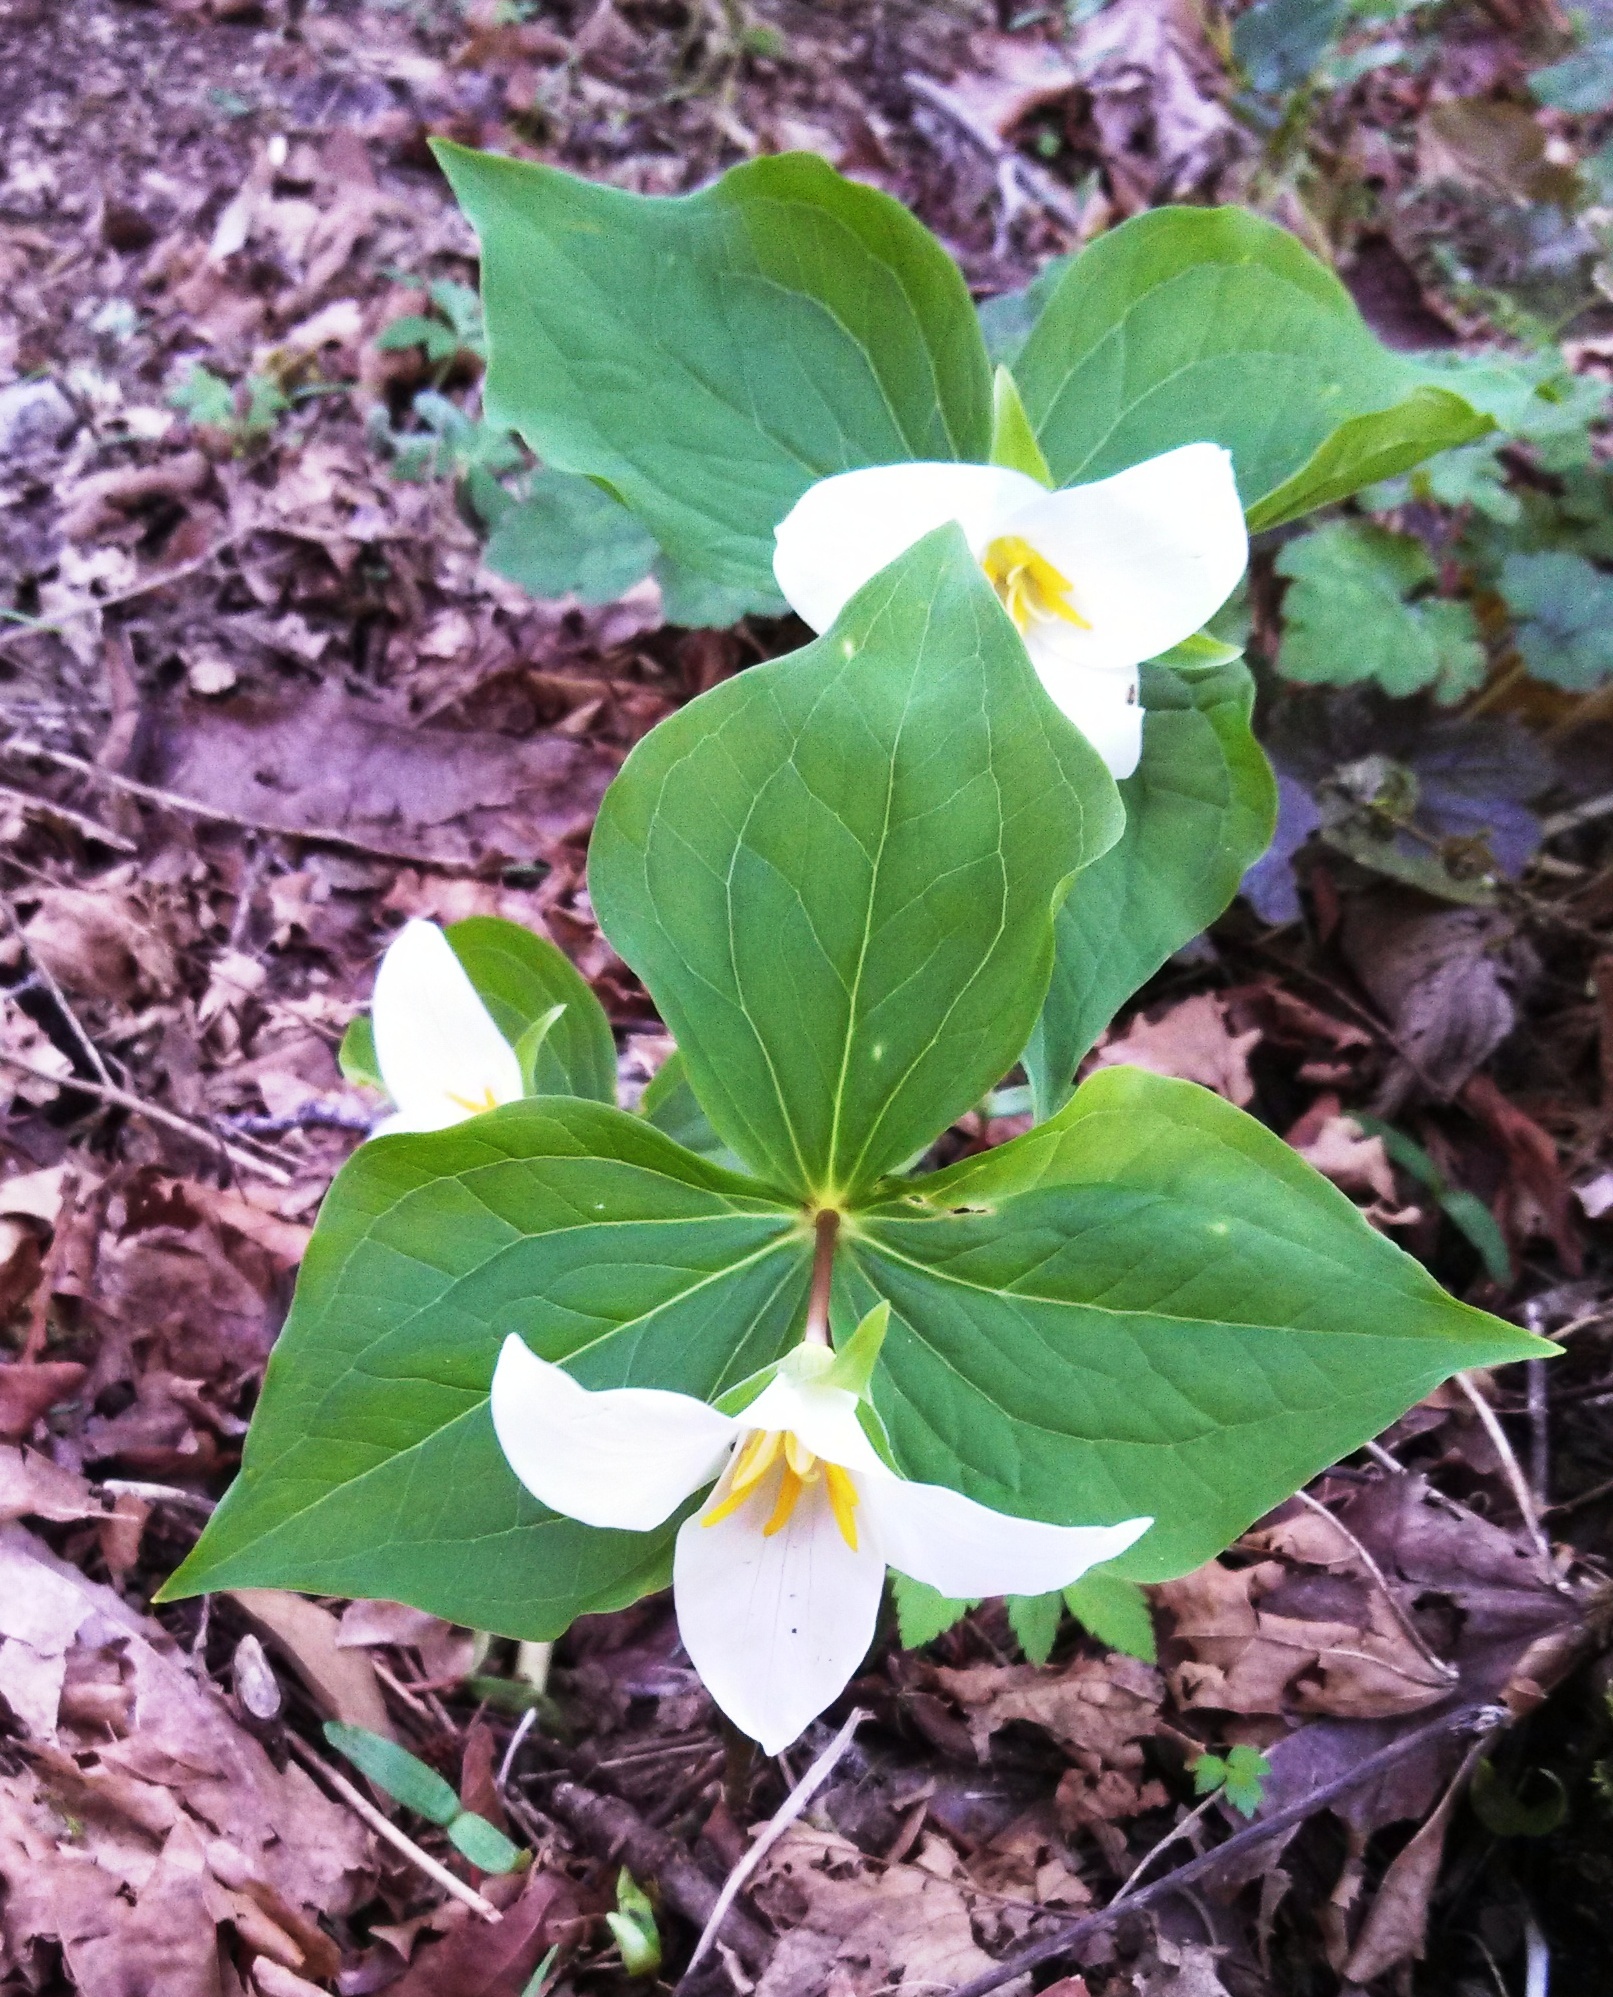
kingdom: Plantae
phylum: Tracheophyta
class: Liliopsida
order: Liliales
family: Melanthiaceae
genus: Trillium
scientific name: Trillium ovatum
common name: Pacific trillium
